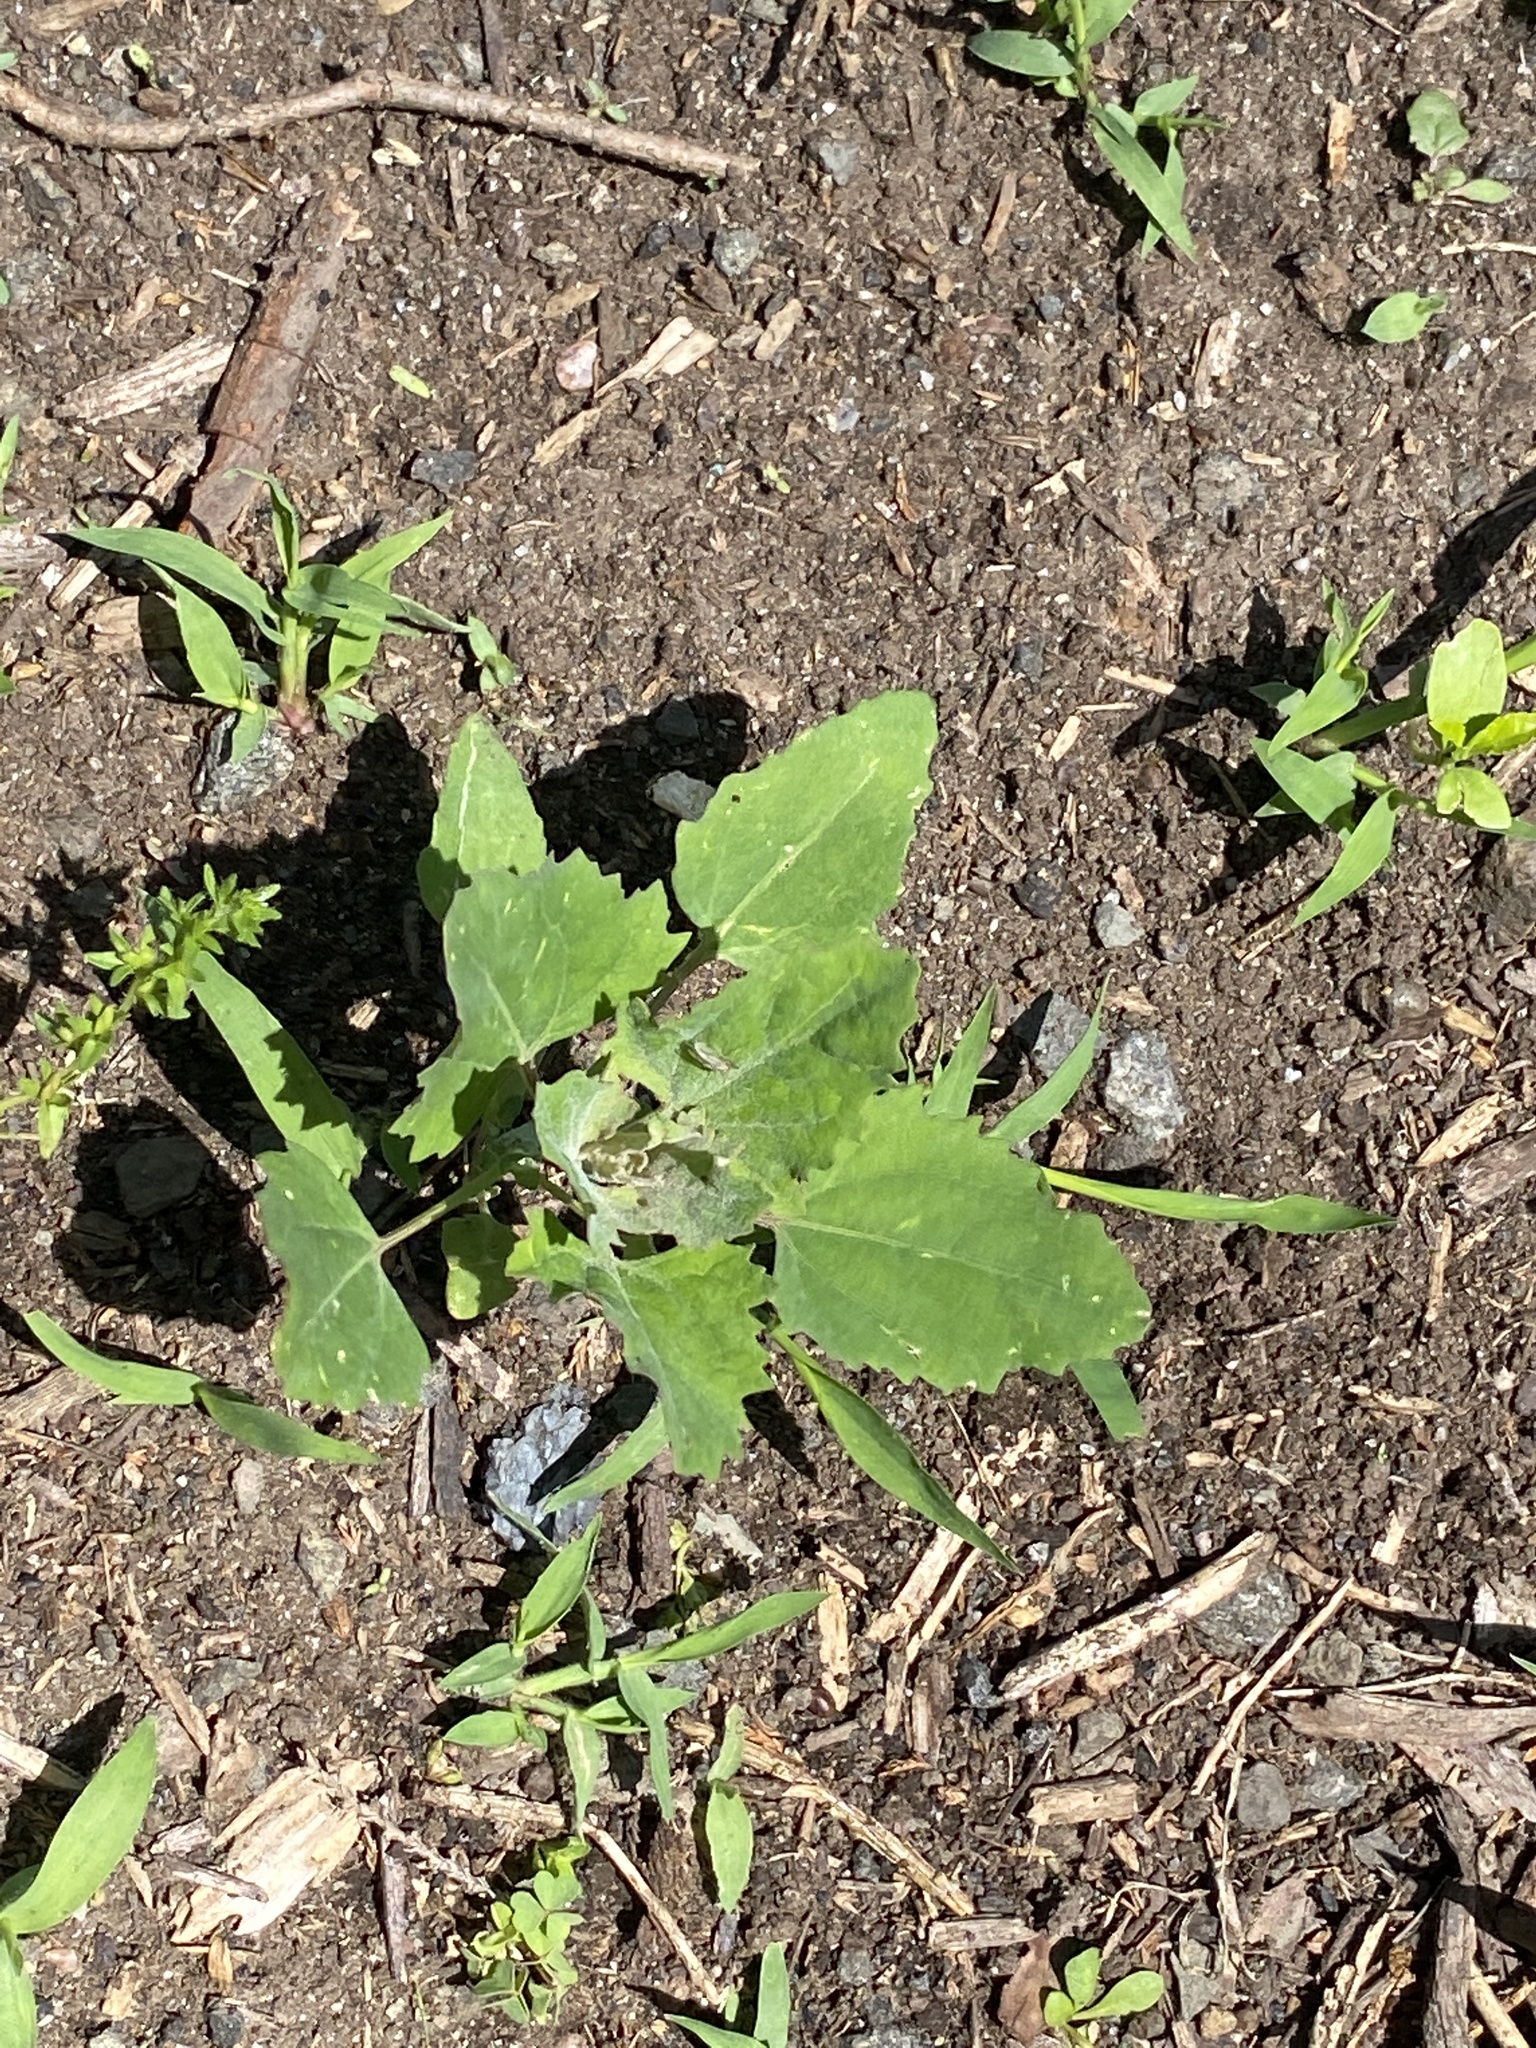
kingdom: Plantae
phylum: Tracheophyta
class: Magnoliopsida
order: Caryophyllales
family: Amaranthaceae
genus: Chenopodium
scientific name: Chenopodium album
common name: Fat-hen
